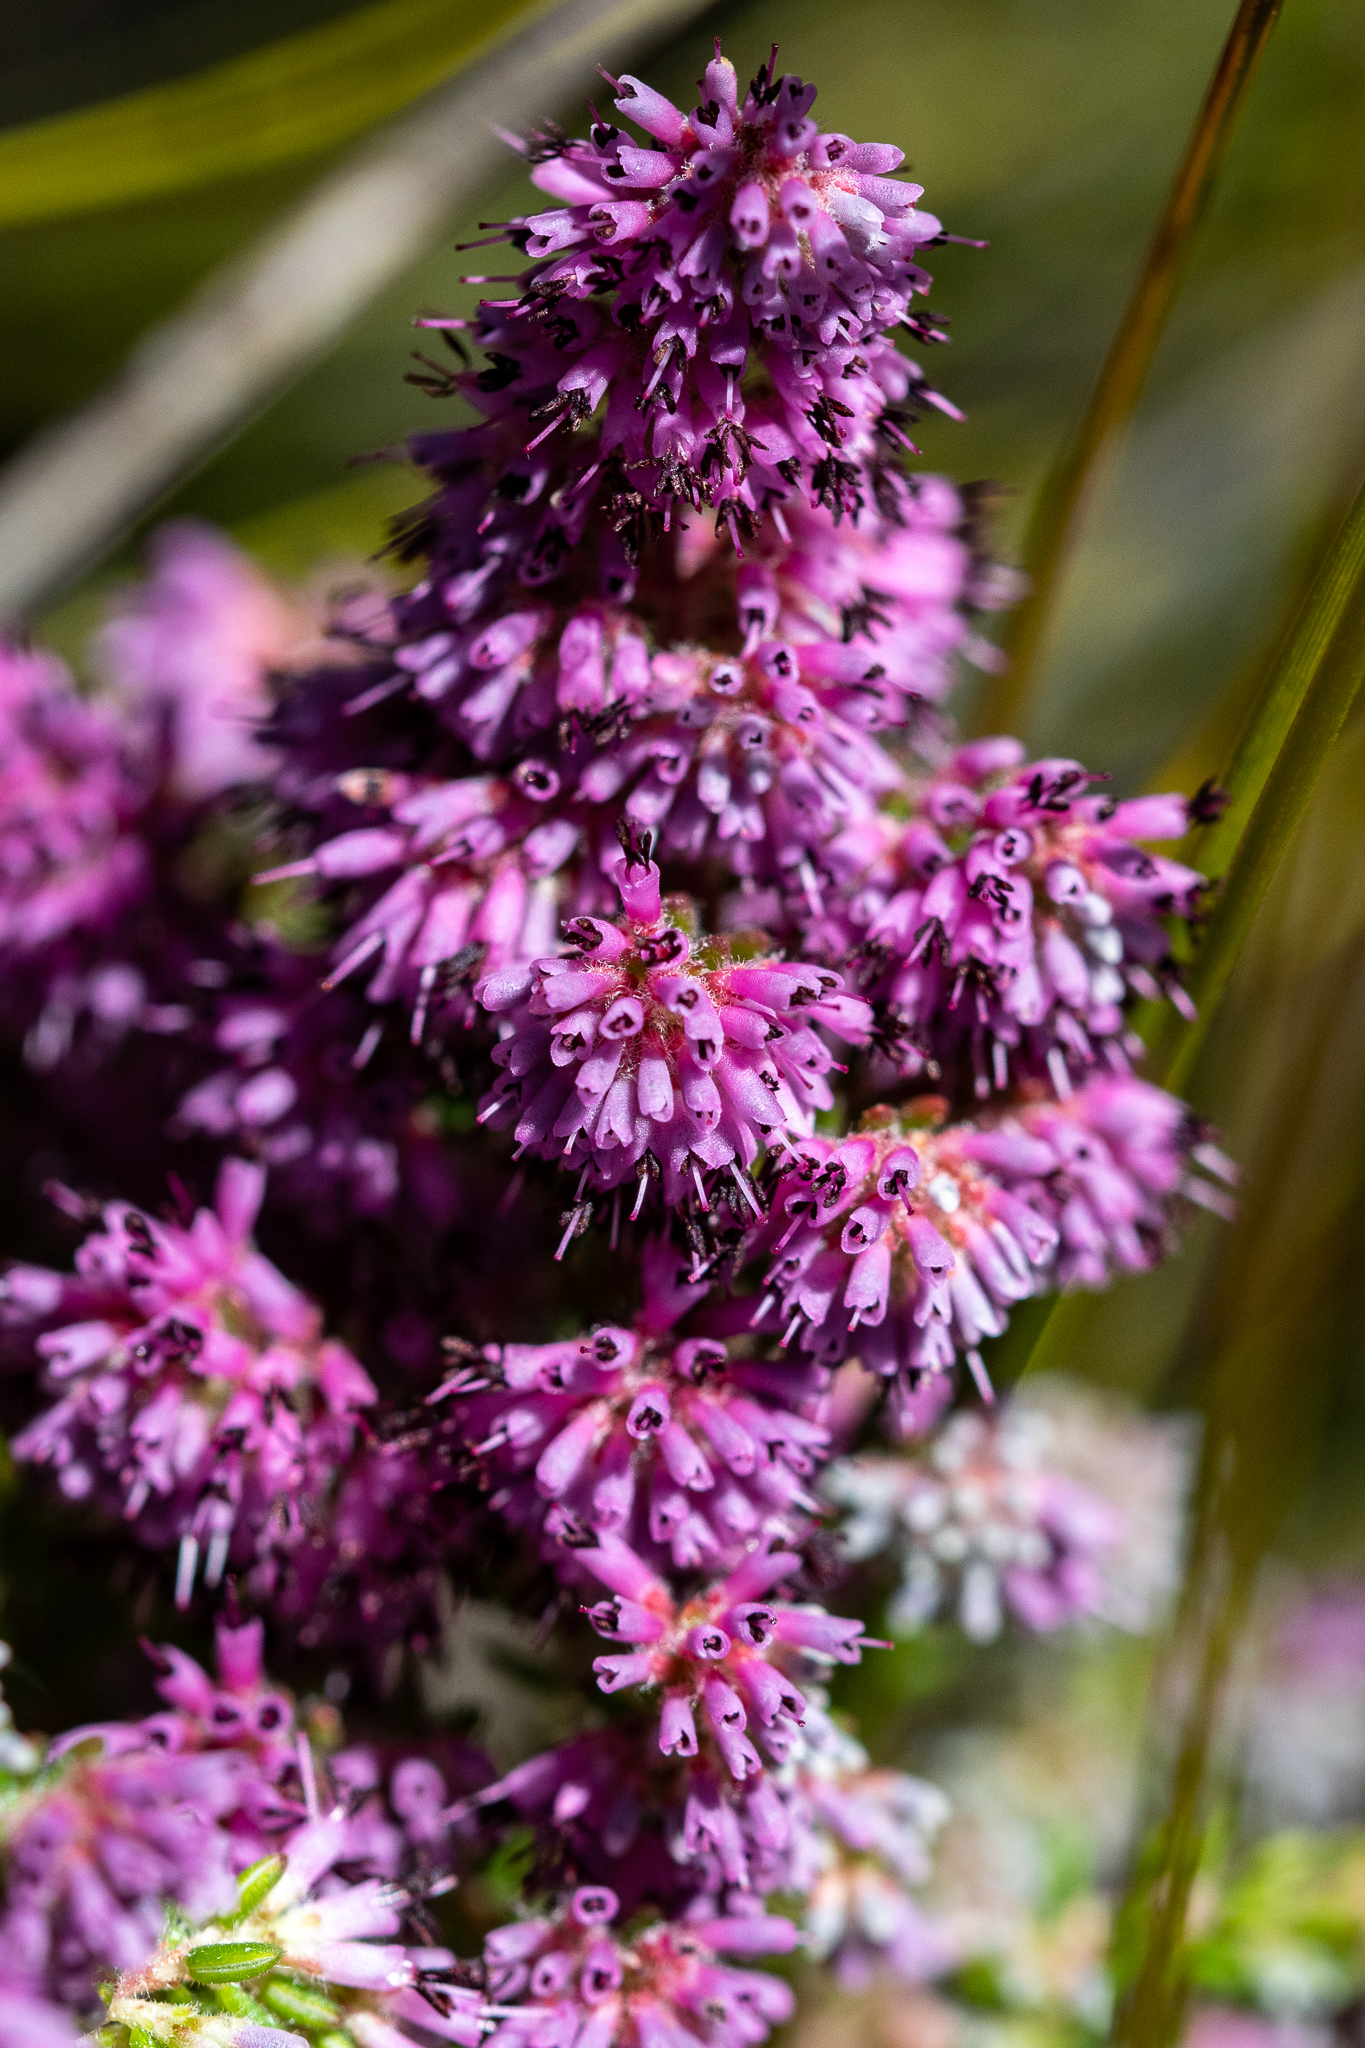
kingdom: Plantae
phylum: Tracheophyta
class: Magnoliopsida
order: Ericales
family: Ericaceae
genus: Erica
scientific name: Erica williamsiorum
